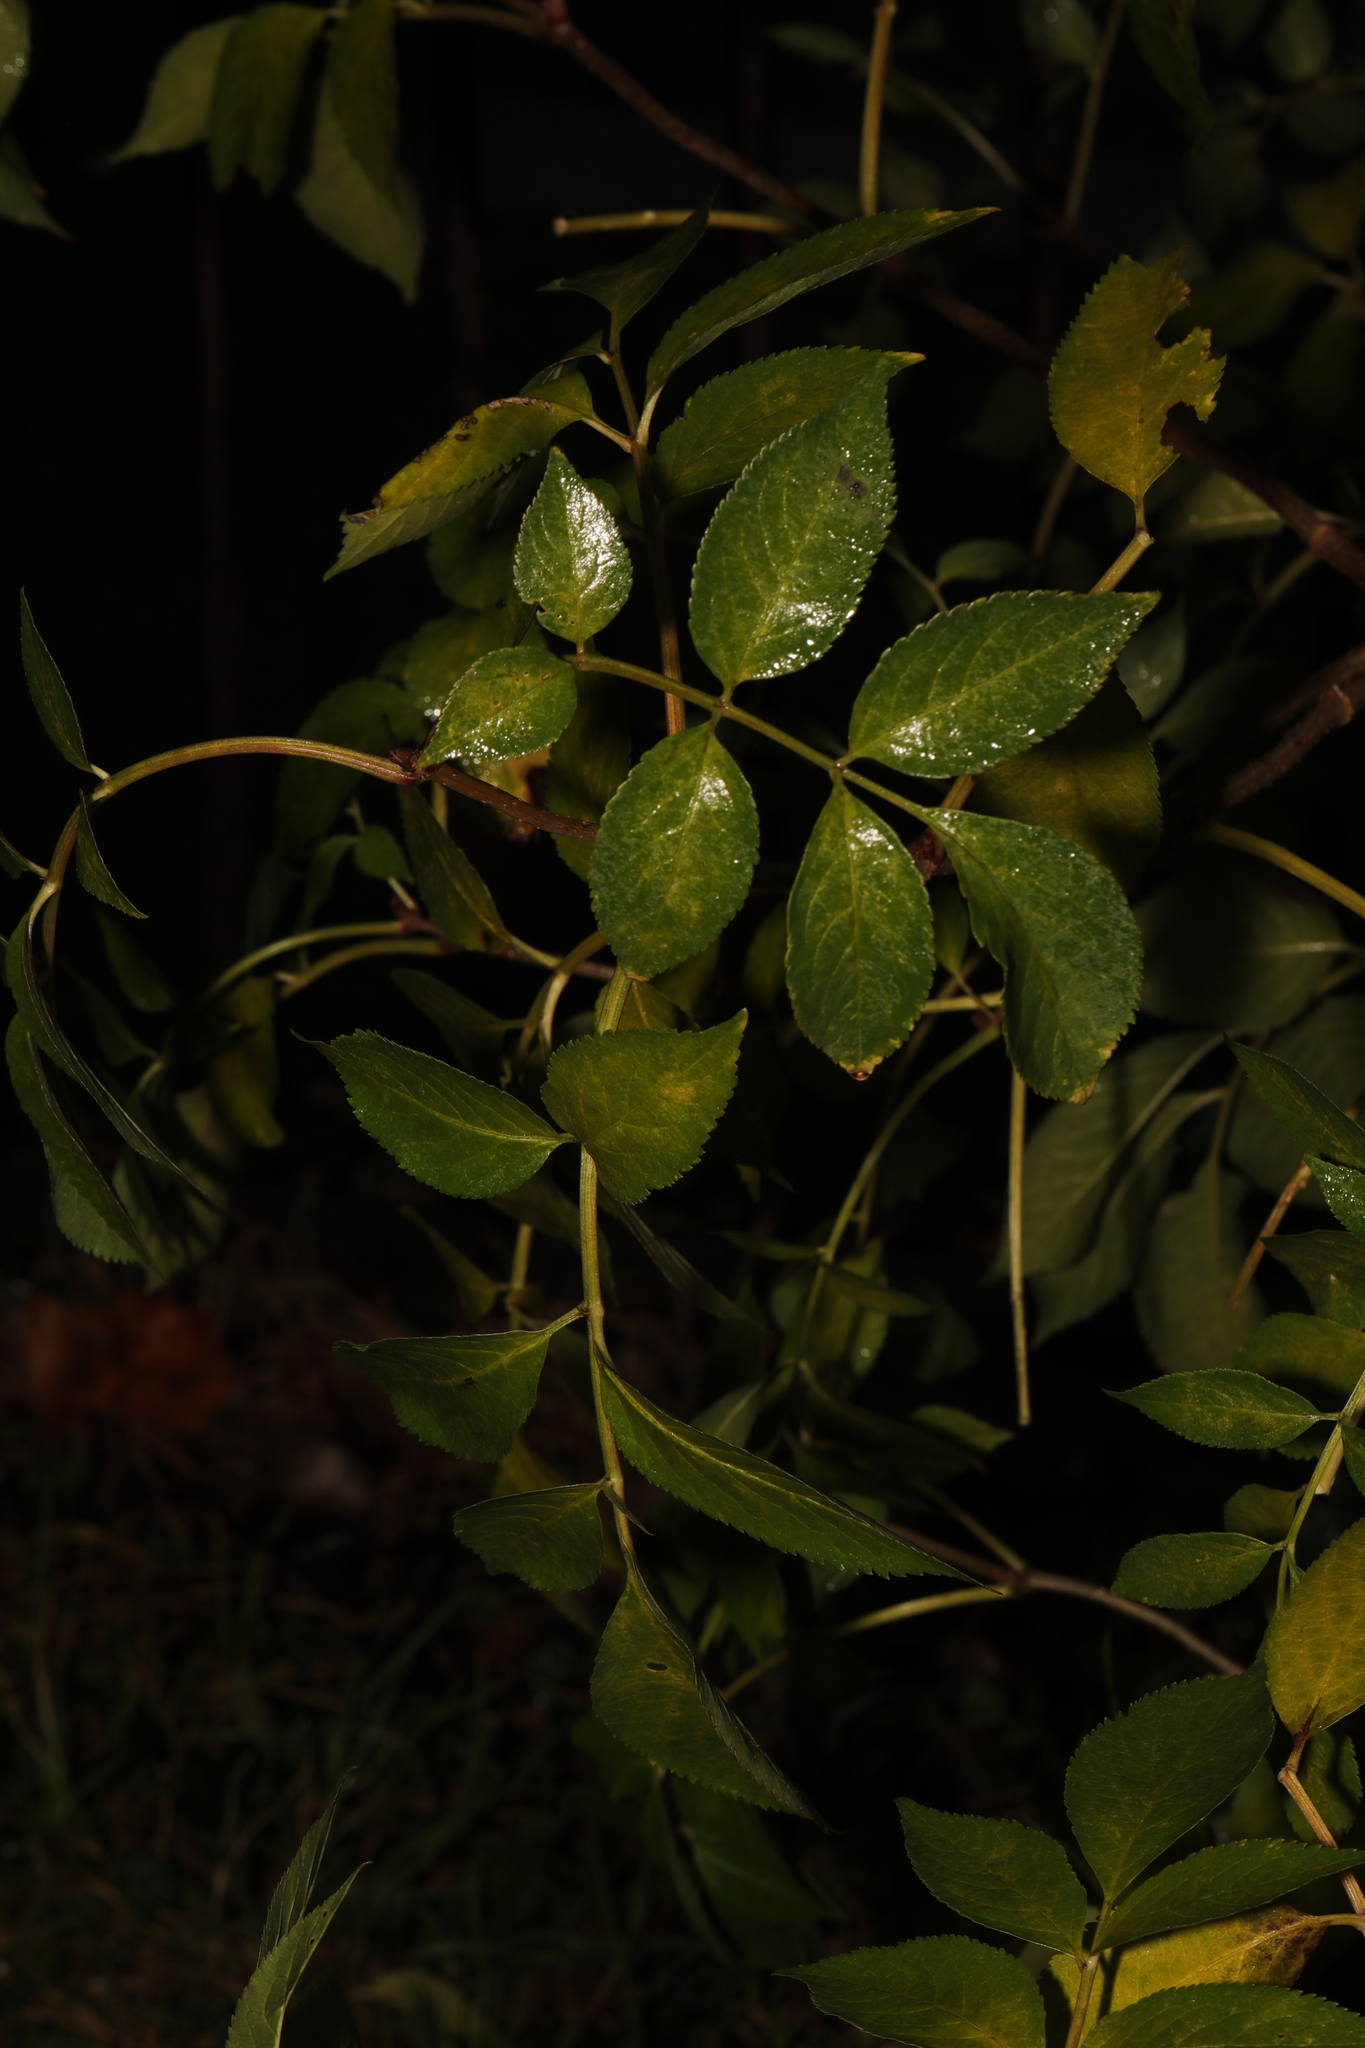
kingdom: Plantae
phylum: Tracheophyta
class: Magnoliopsida
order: Dipsacales
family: Viburnaceae
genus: Sambucus
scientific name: Sambucus nigra
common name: Elder
